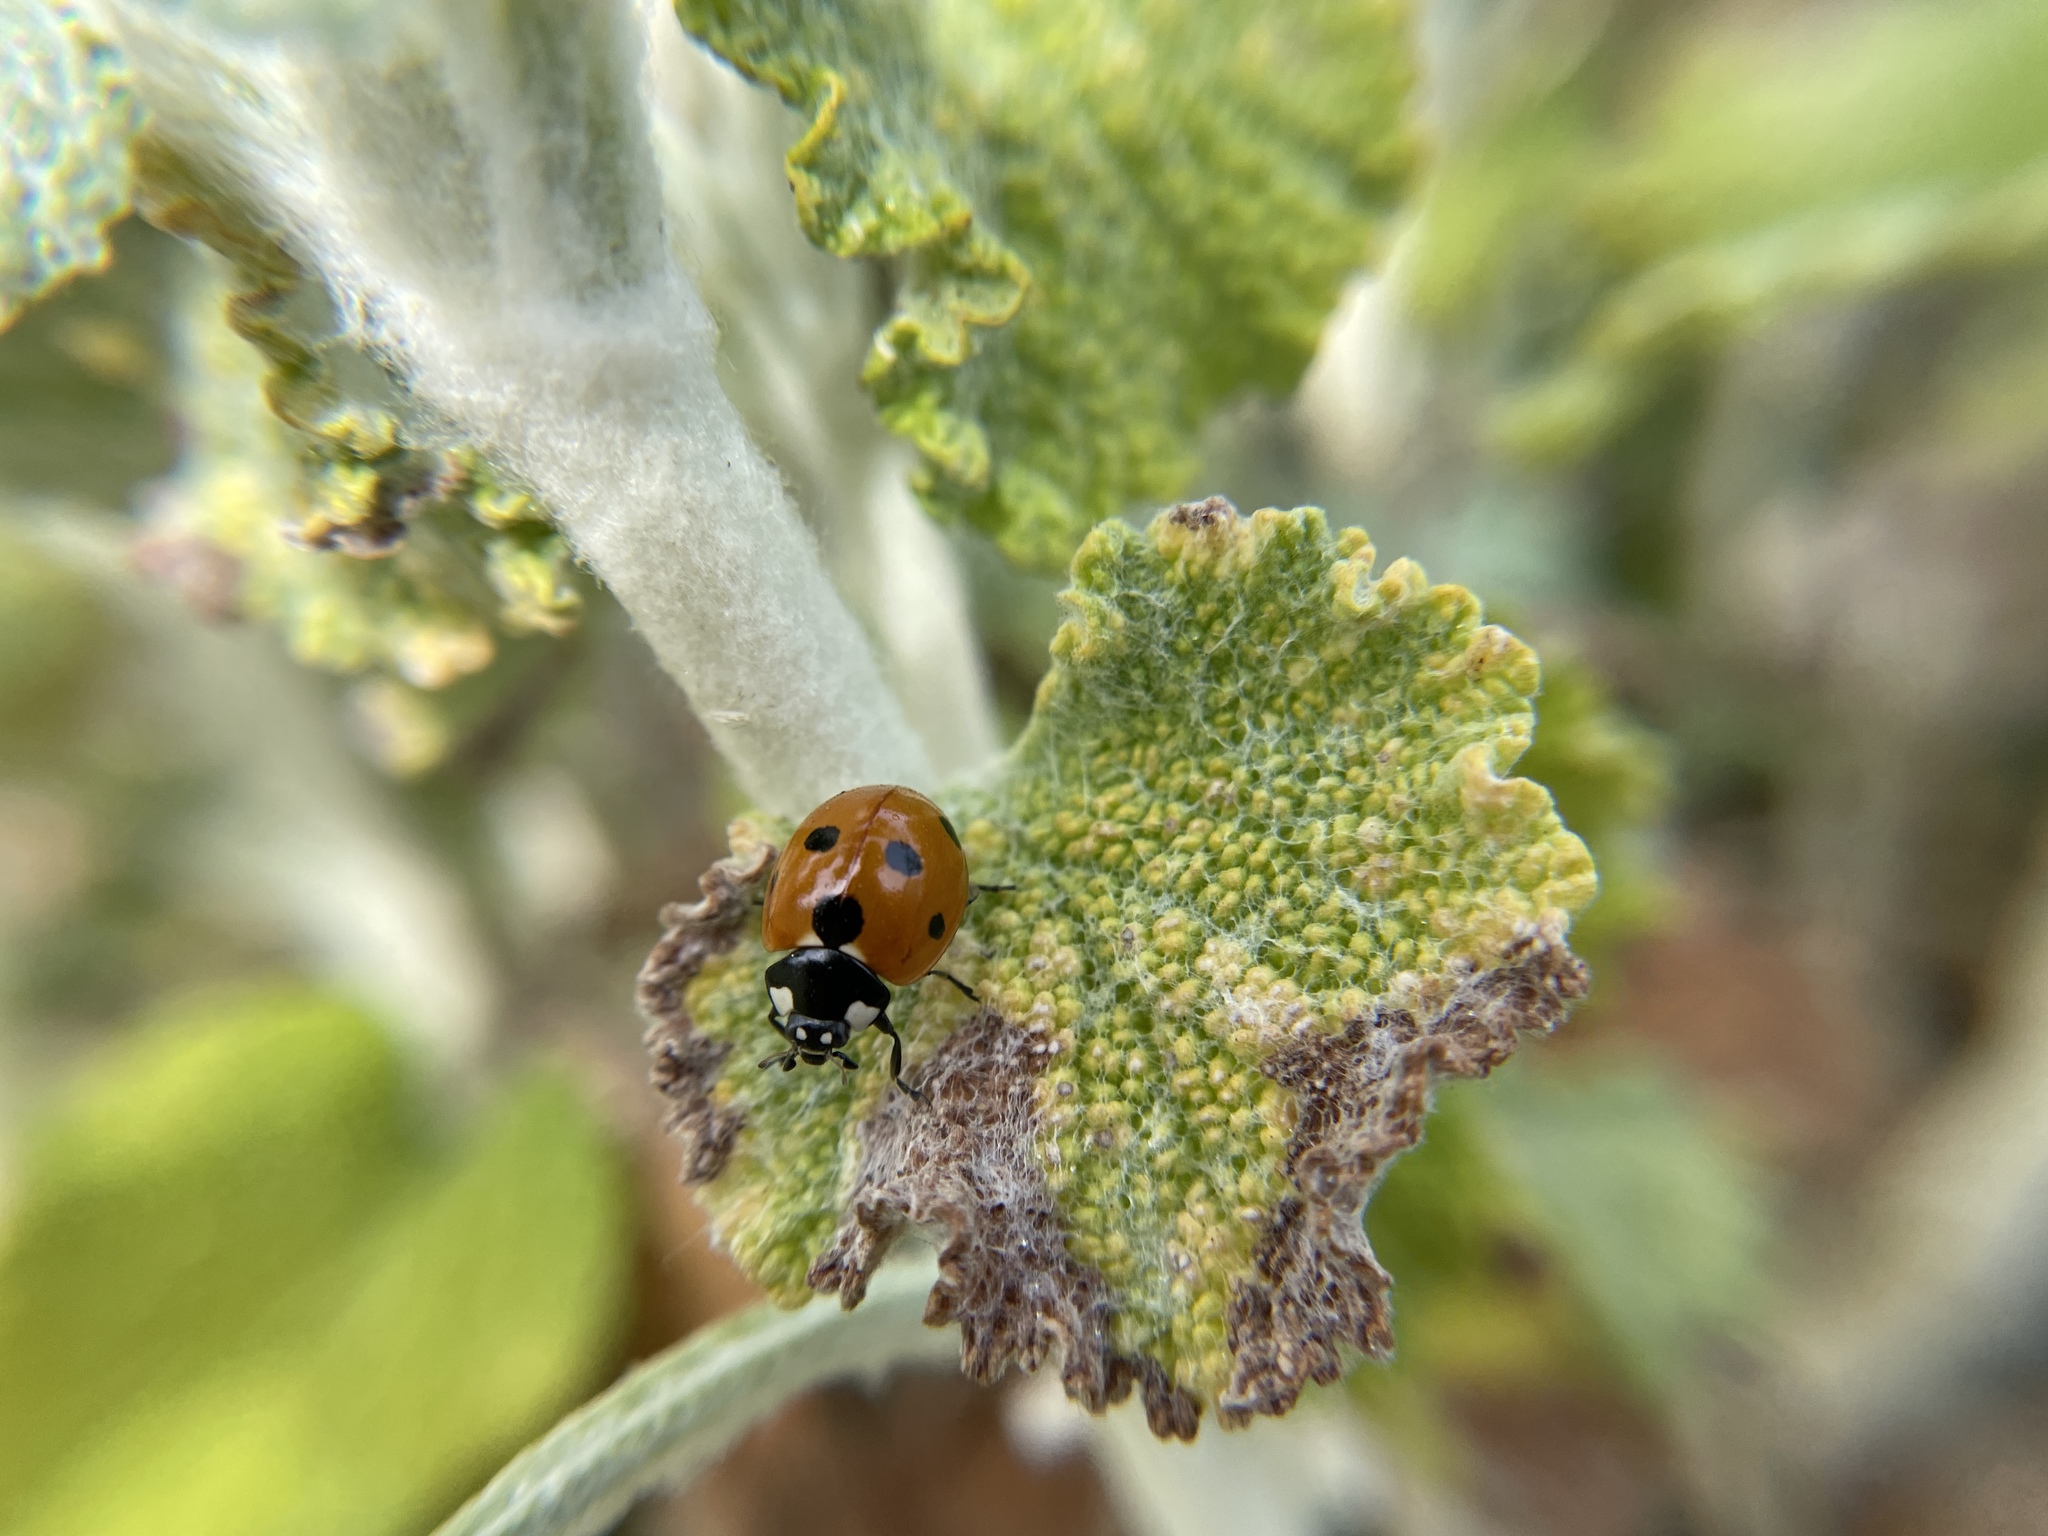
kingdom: Animalia
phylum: Arthropoda
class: Insecta
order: Coleoptera
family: Coccinellidae
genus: Coccinella
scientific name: Coccinella septempunctata
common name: Sevenspotted lady beetle
